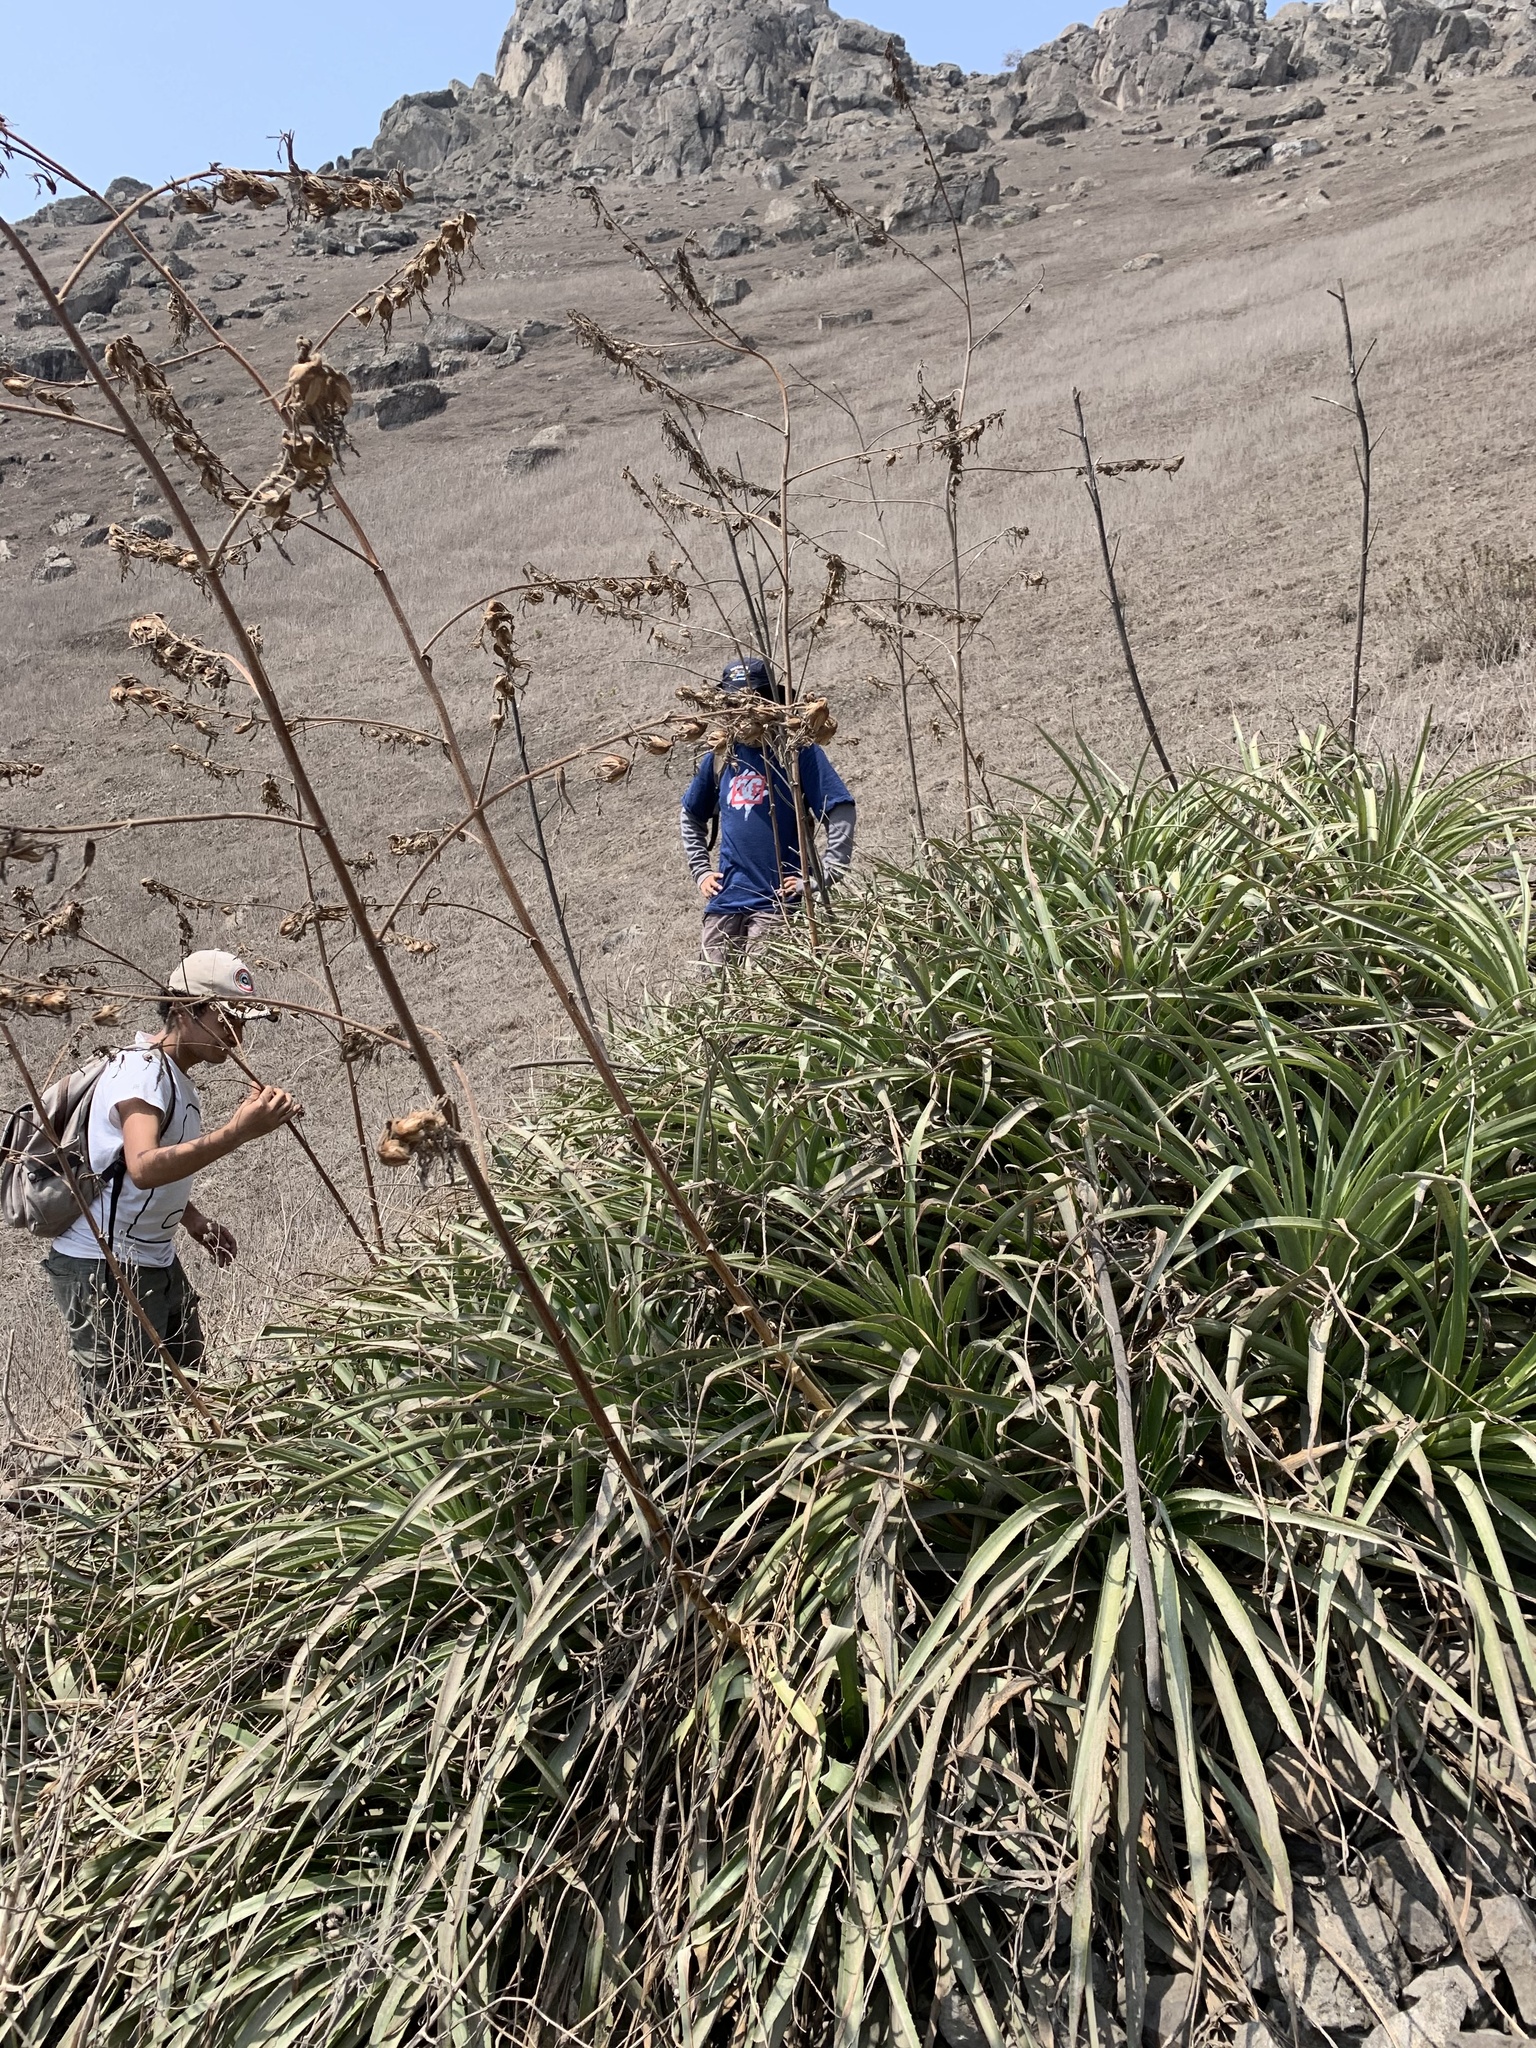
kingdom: Plantae
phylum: Tracheophyta
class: Liliopsida
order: Poales
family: Bromeliaceae
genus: Puya
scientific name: Puya ferruginea
